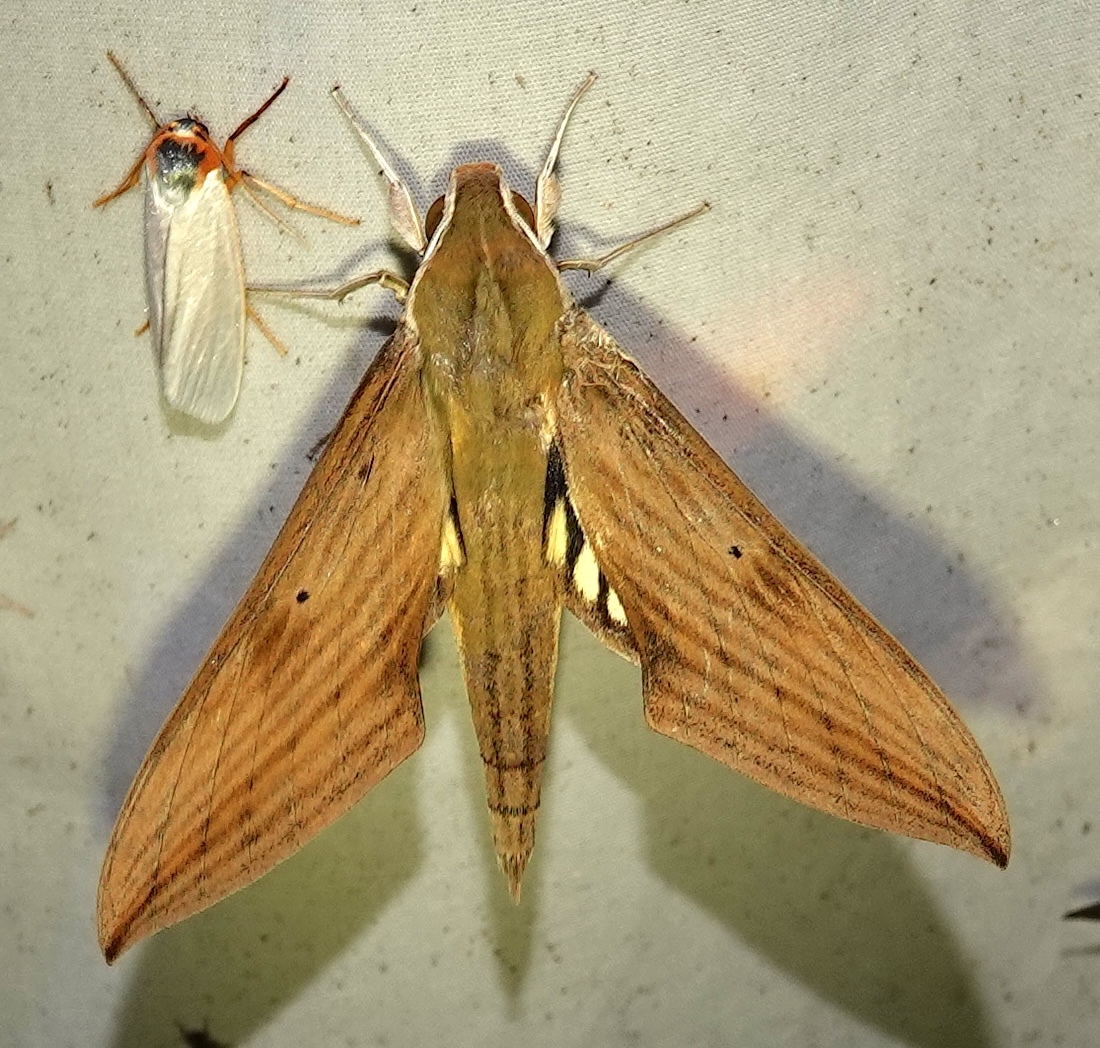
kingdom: Animalia
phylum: Arthropoda
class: Insecta
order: Lepidoptera
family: Sphingidae
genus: Xylophanes
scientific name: Xylophanes crotonis
